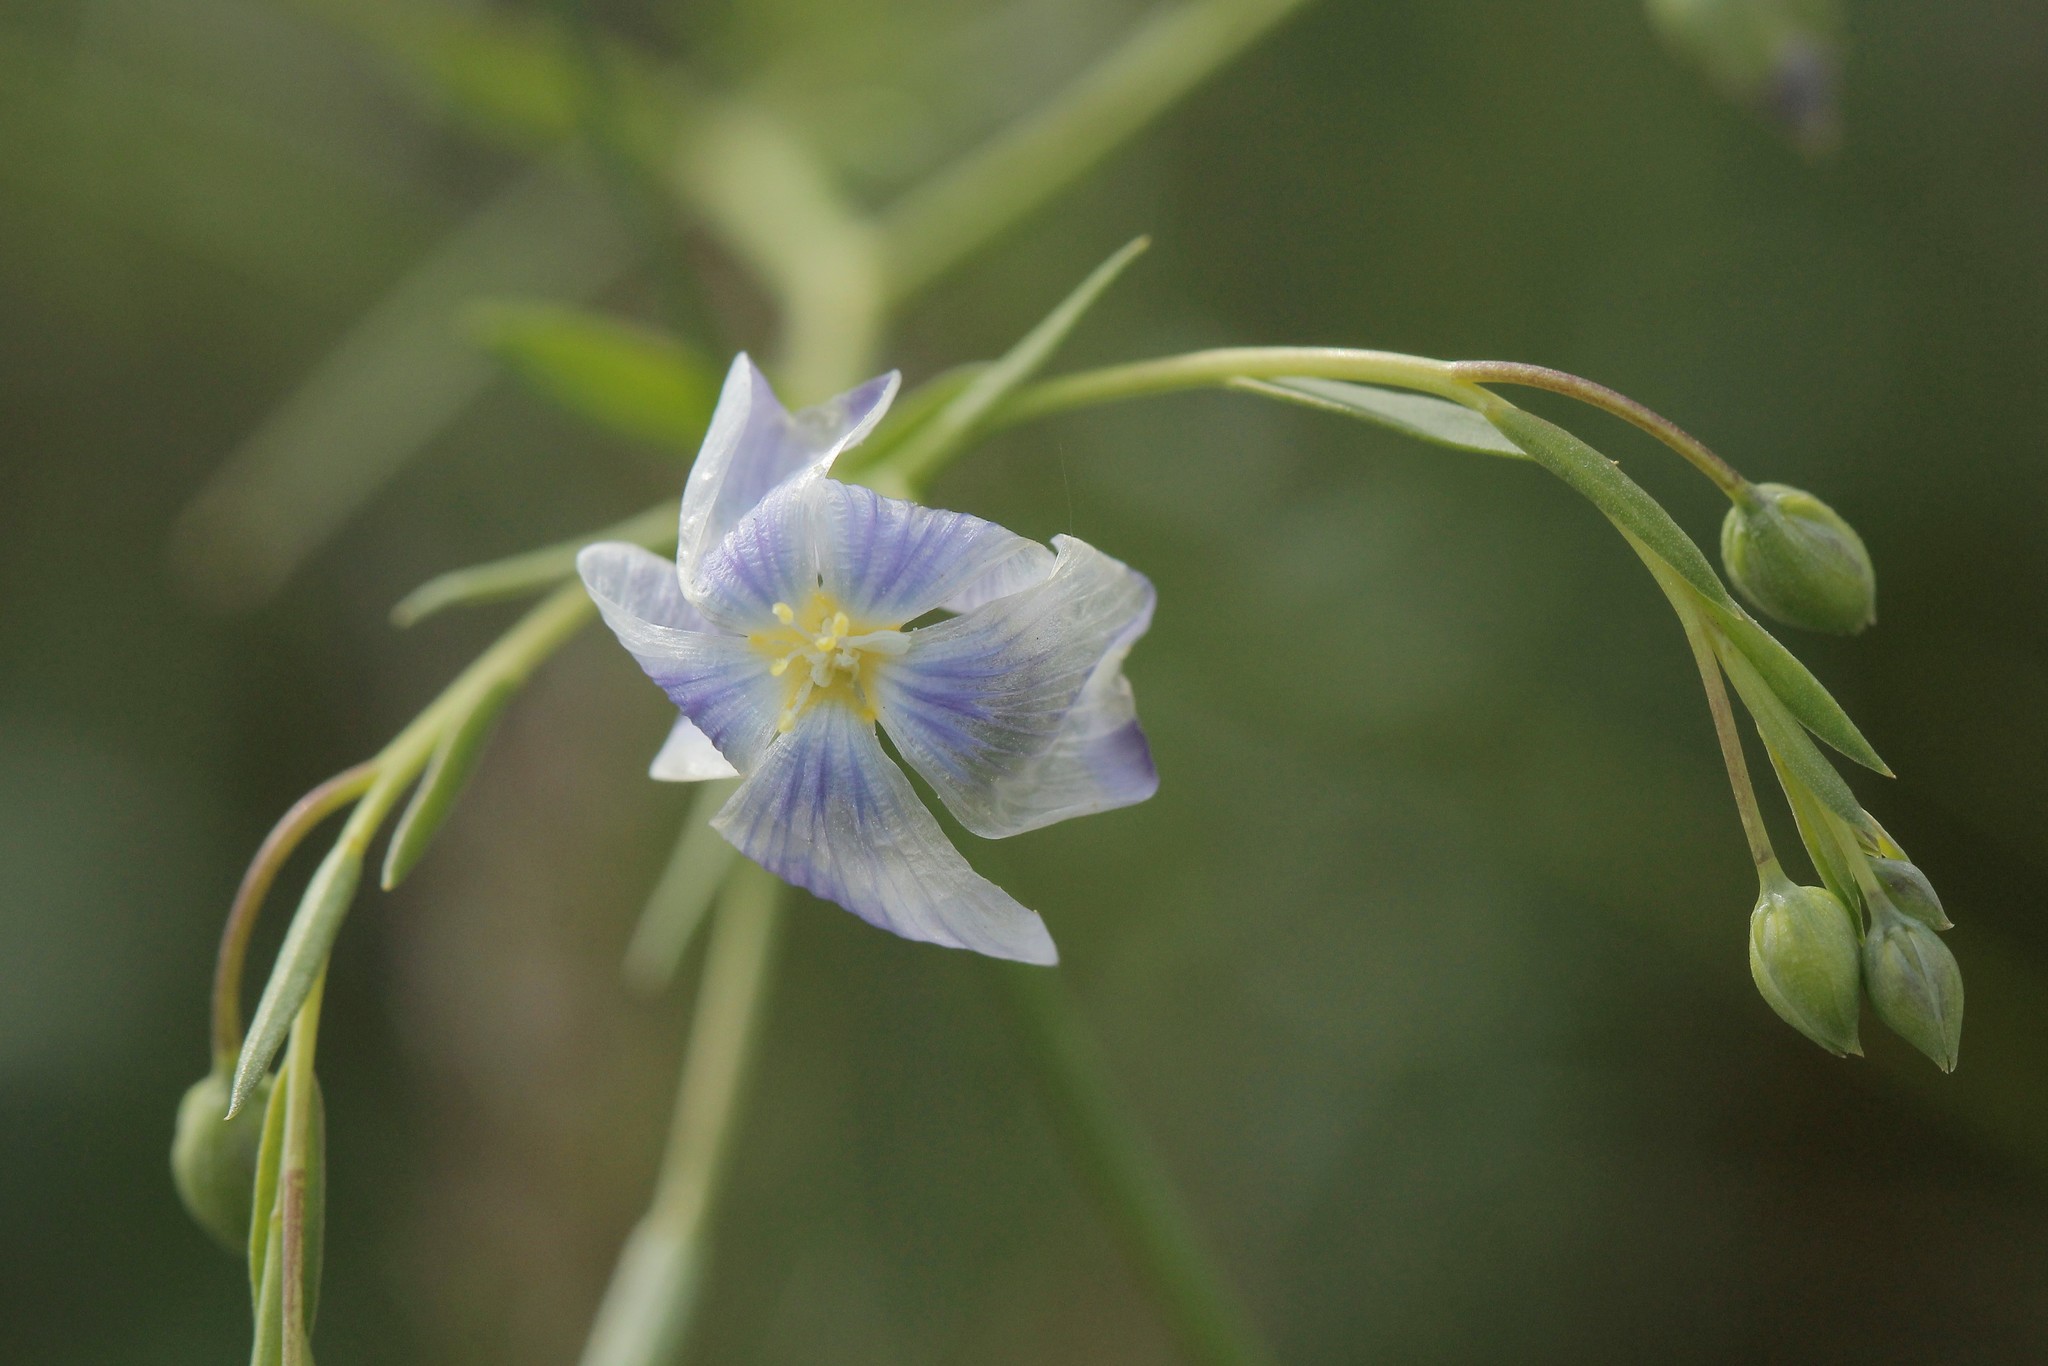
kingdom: Plantae
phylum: Tracheophyta
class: Magnoliopsida
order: Malpighiales
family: Linaceae
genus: Linum
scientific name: Linum austriacum
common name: Austrian flax
